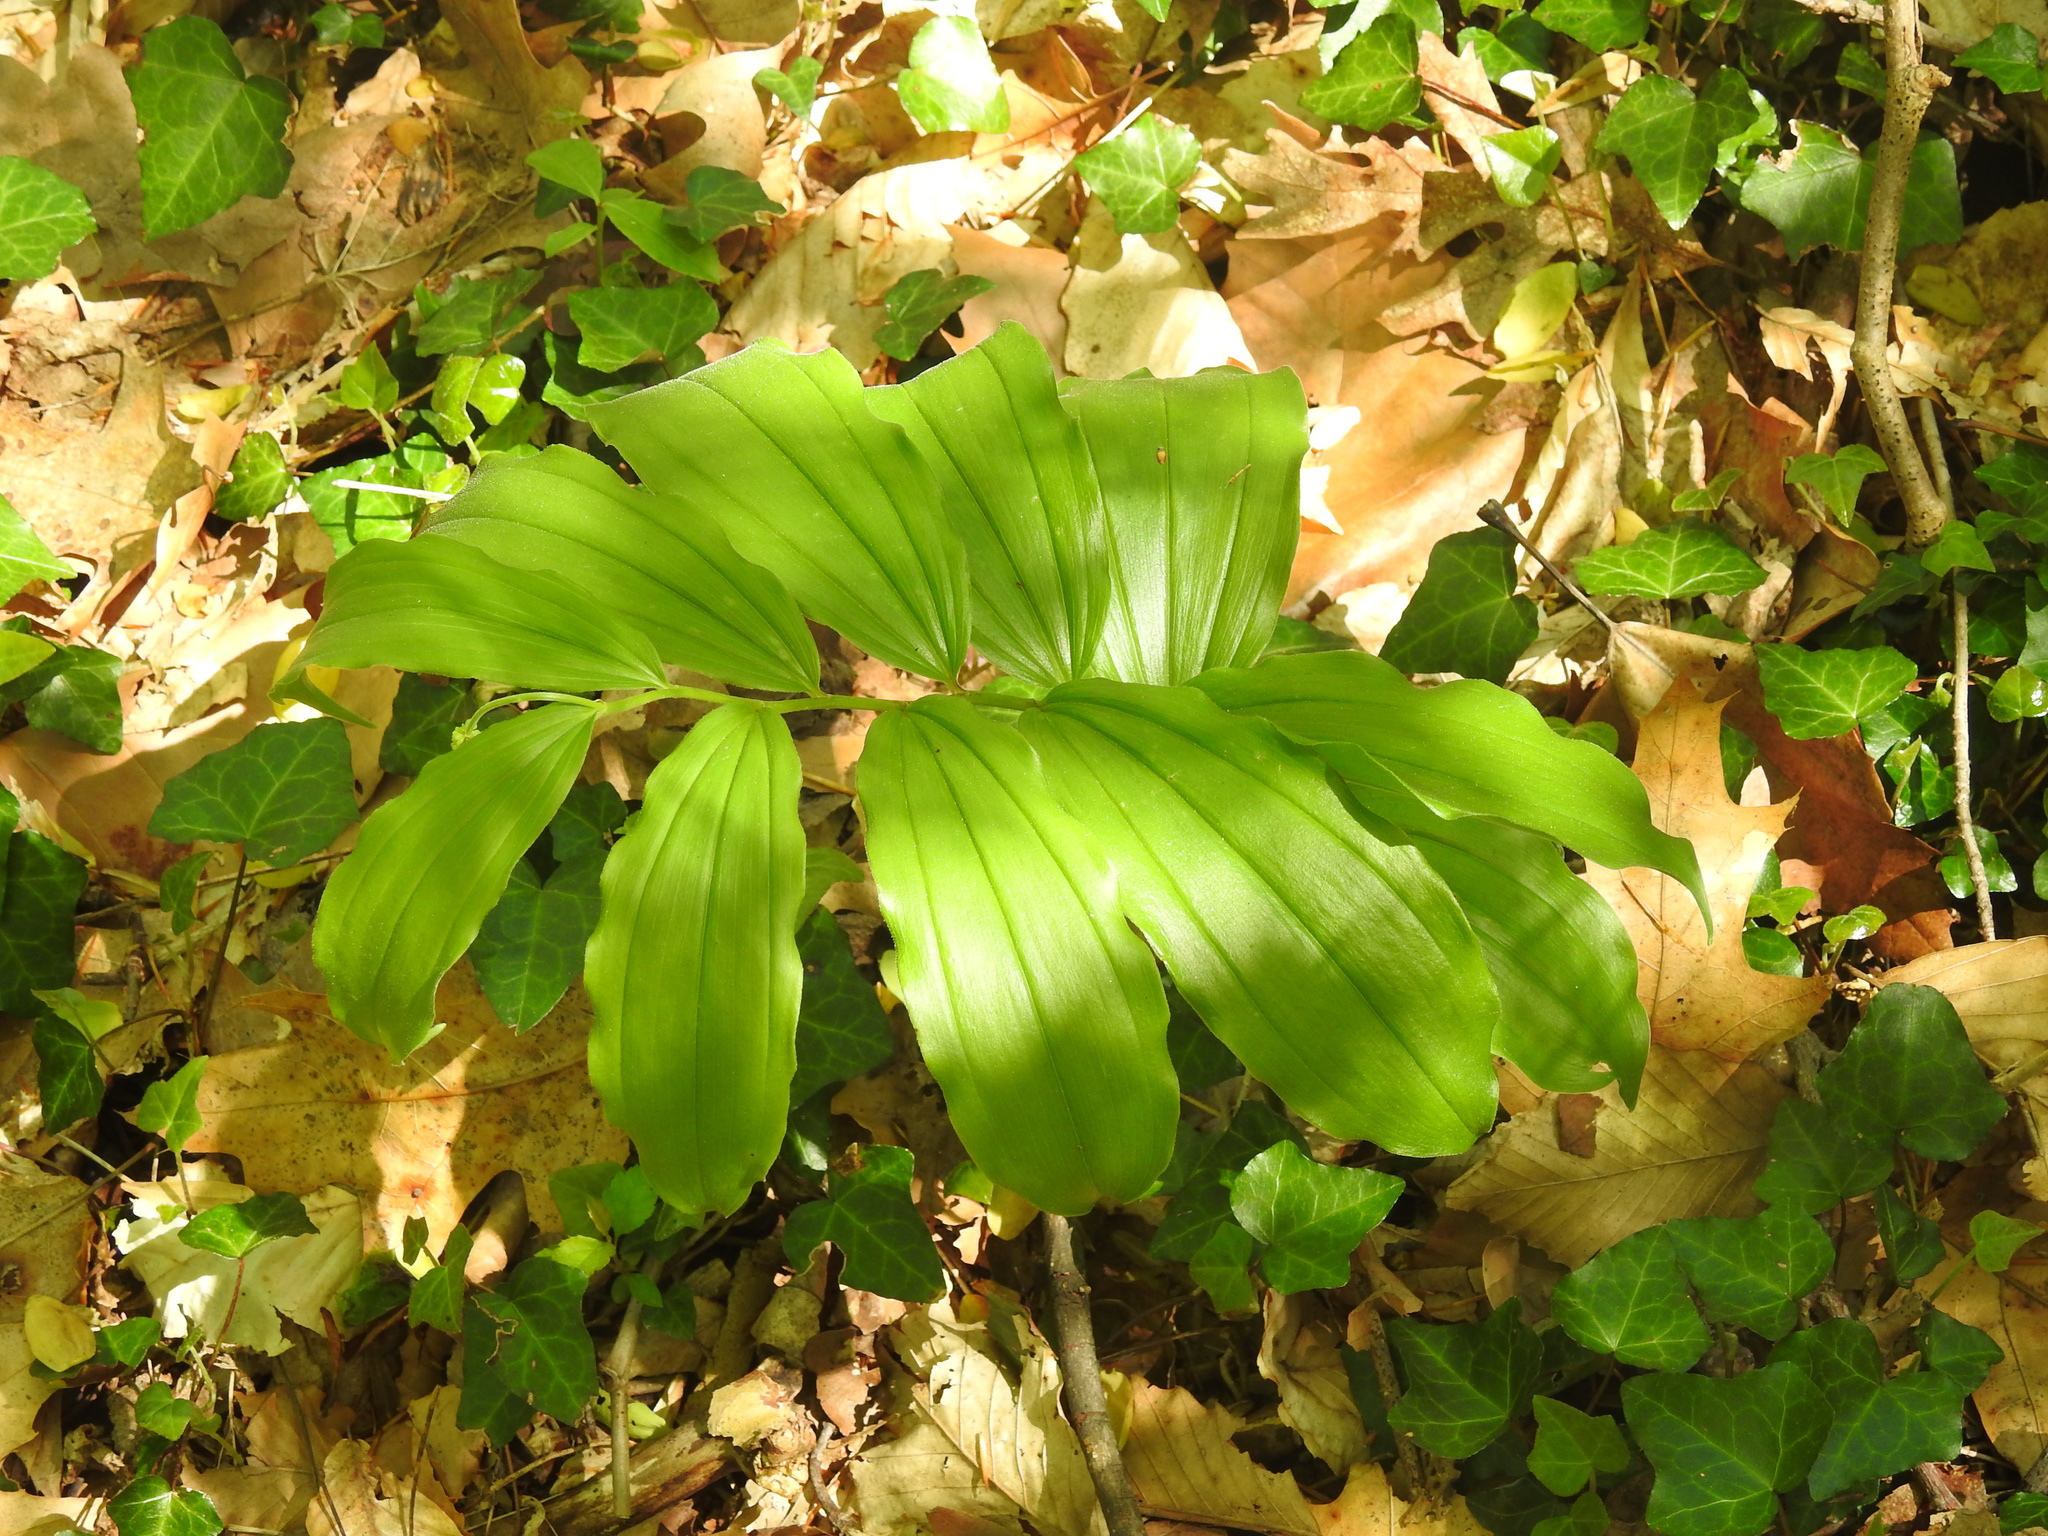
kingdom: Plantae
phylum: Tracheophyta
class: Liliopsida
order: Asparagales
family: Asparagaceae
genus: Maianthemum
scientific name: Maianthemum racemosum
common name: False spikenard
